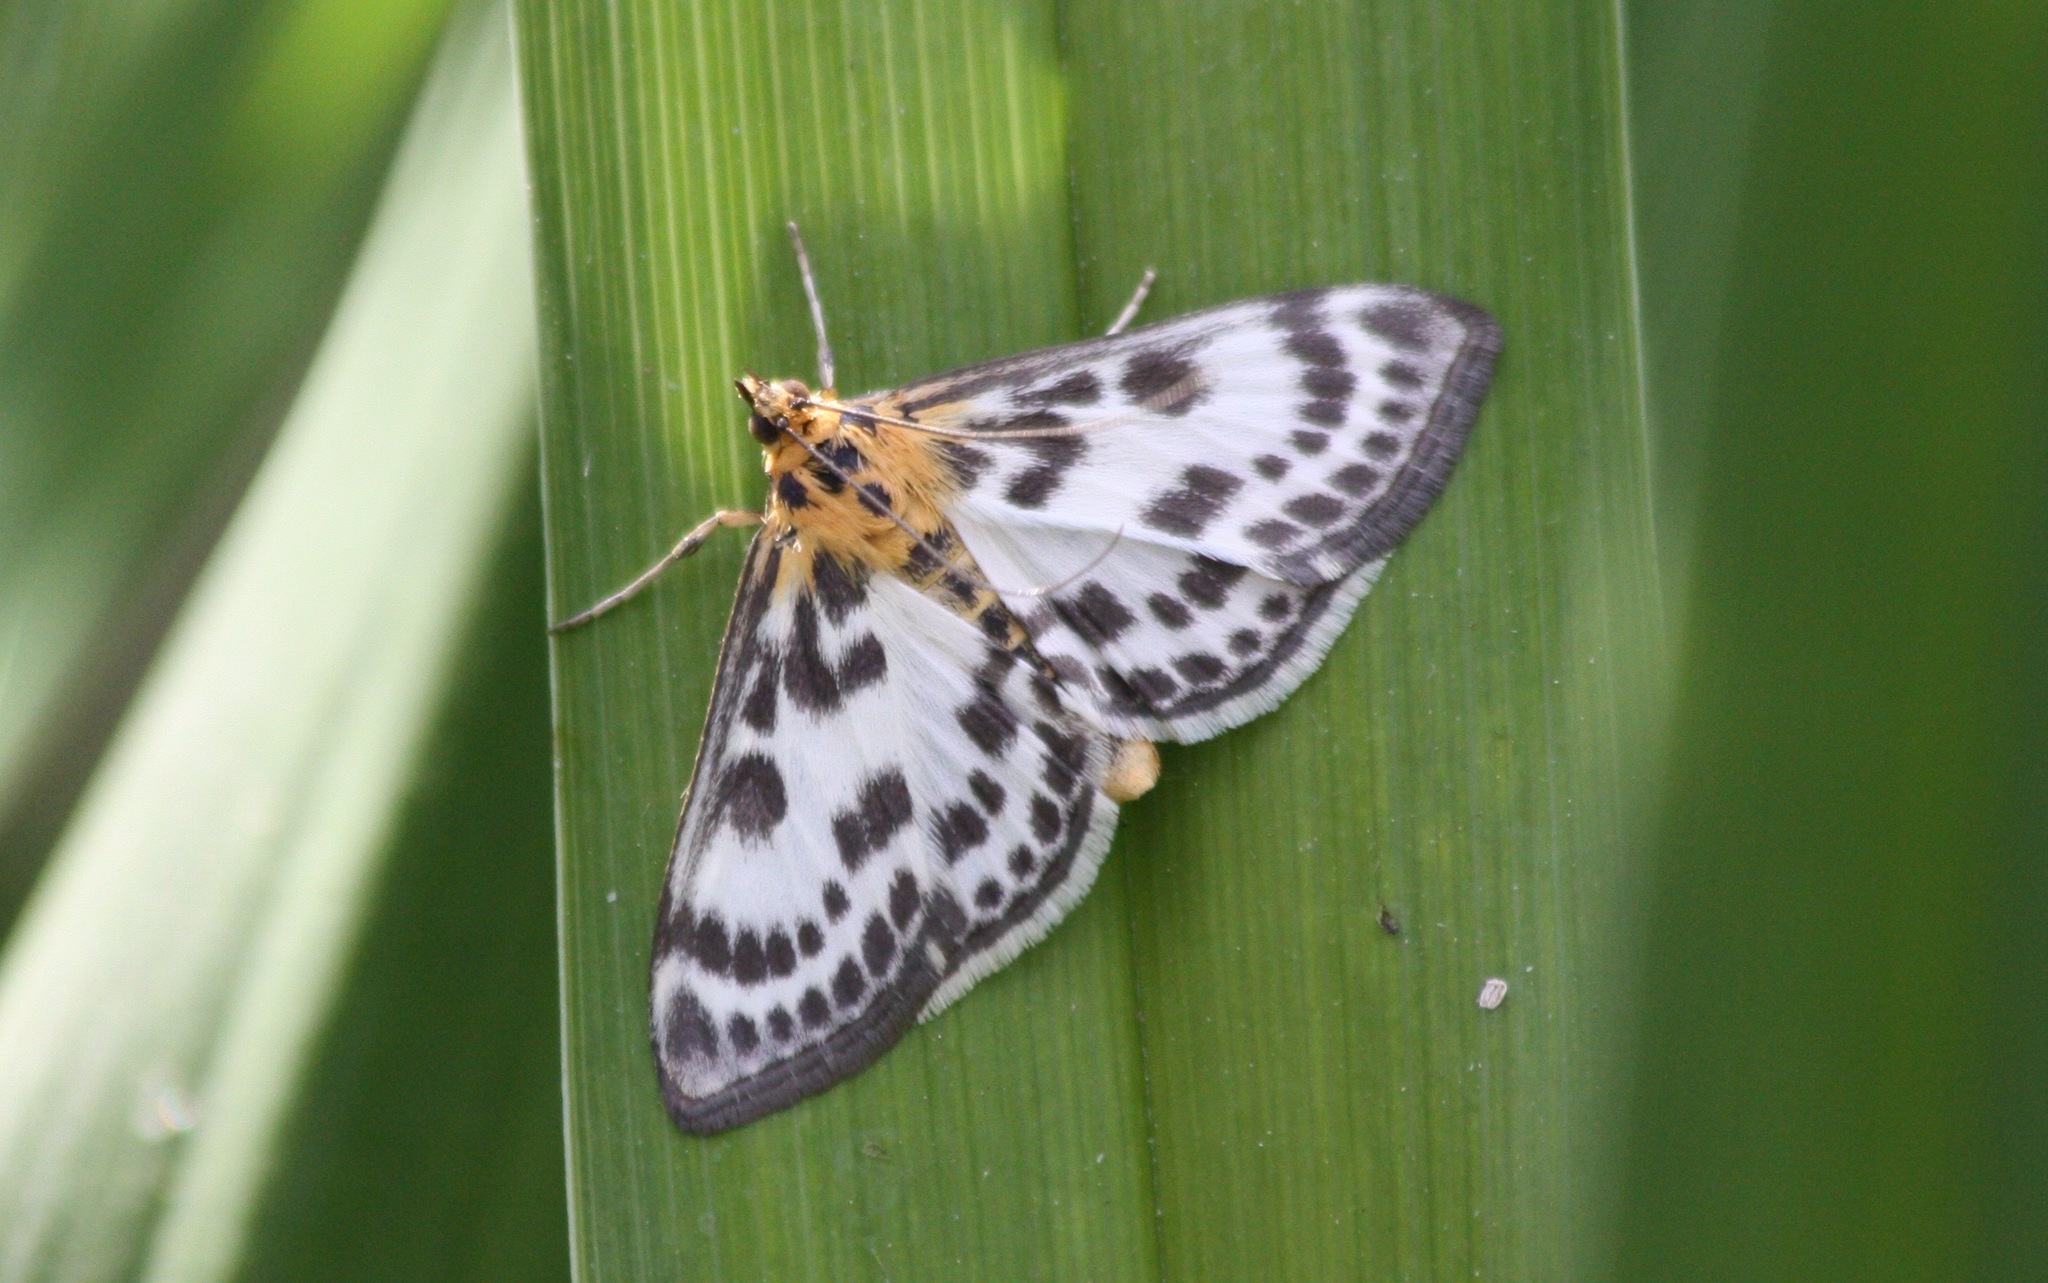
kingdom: Animalia
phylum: Arthropoda
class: Insecta
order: Lepidoptera
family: Crambidae
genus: Anania
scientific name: Anania hortulata
